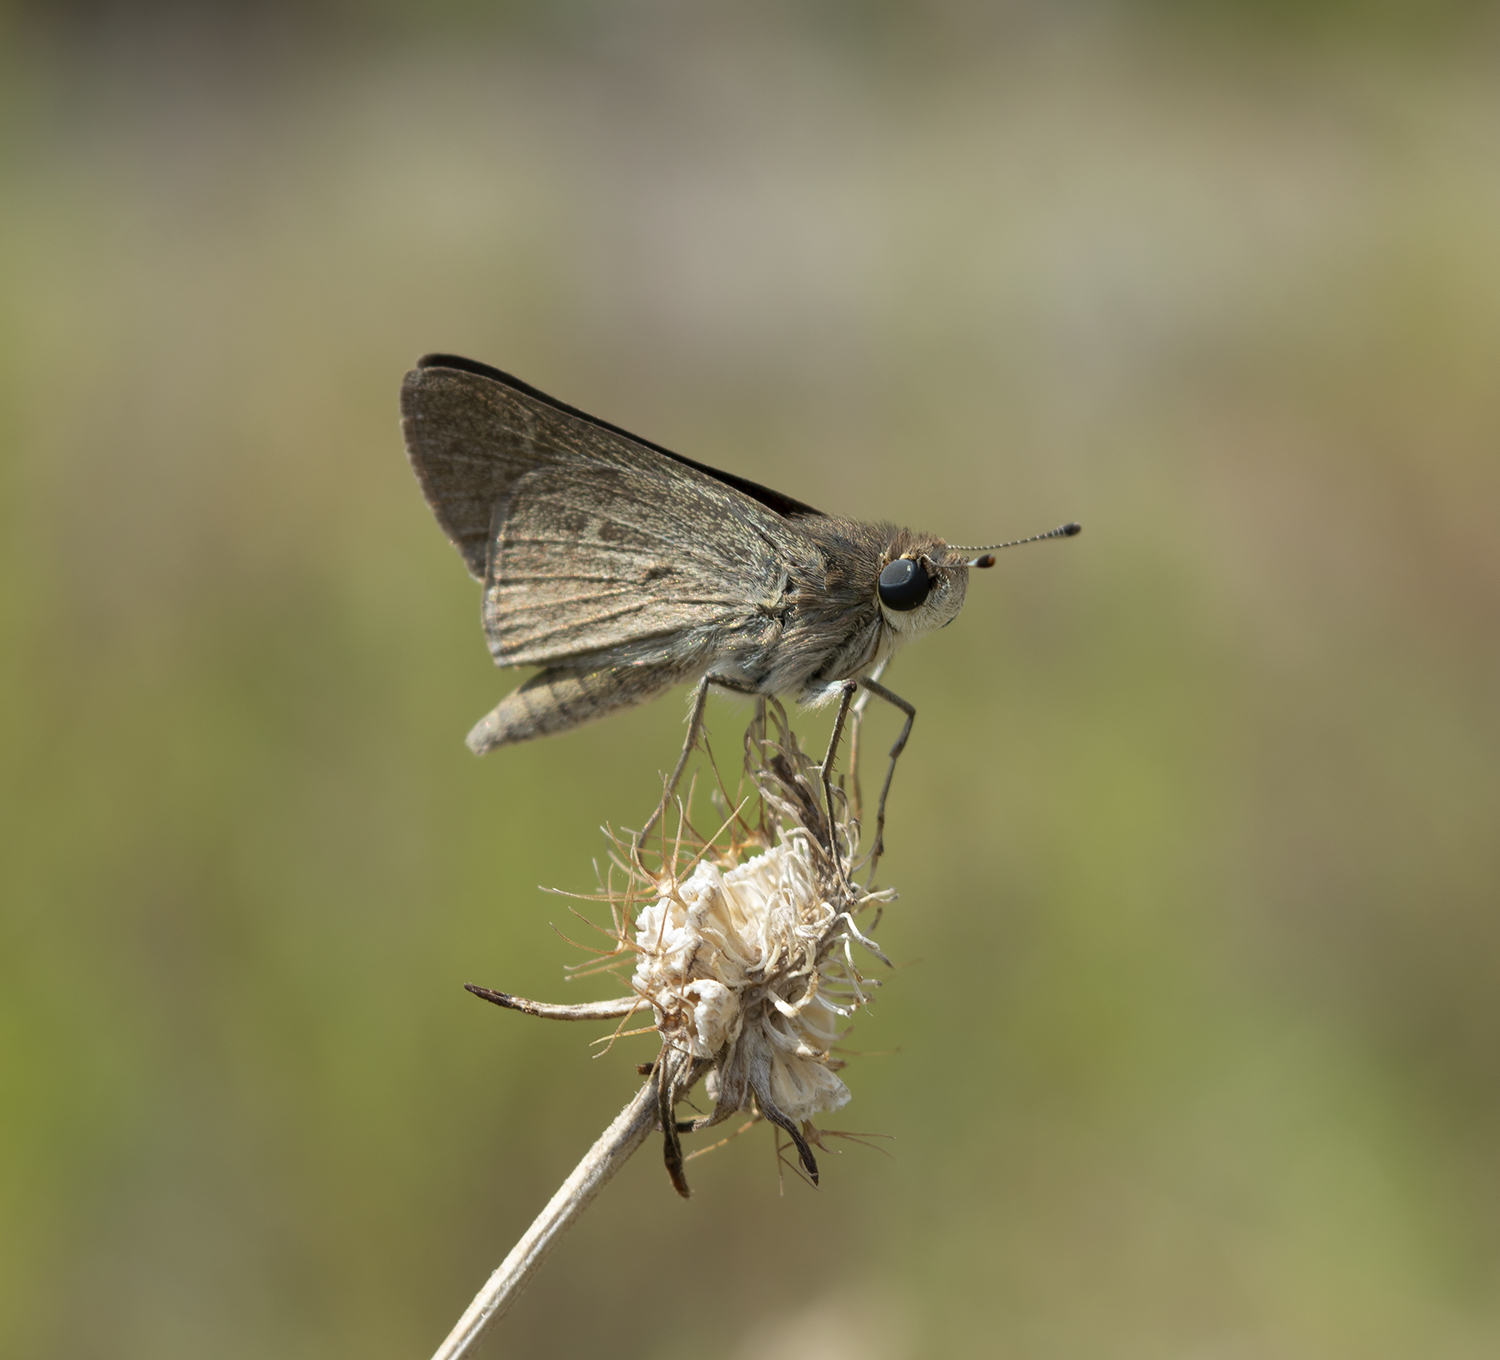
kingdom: Animalia
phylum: Arthropoda
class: Insecta
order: Lepidoptera
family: Hesperiidae
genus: Gegenes
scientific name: Gegenes pumilio
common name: Pigmy skipper
